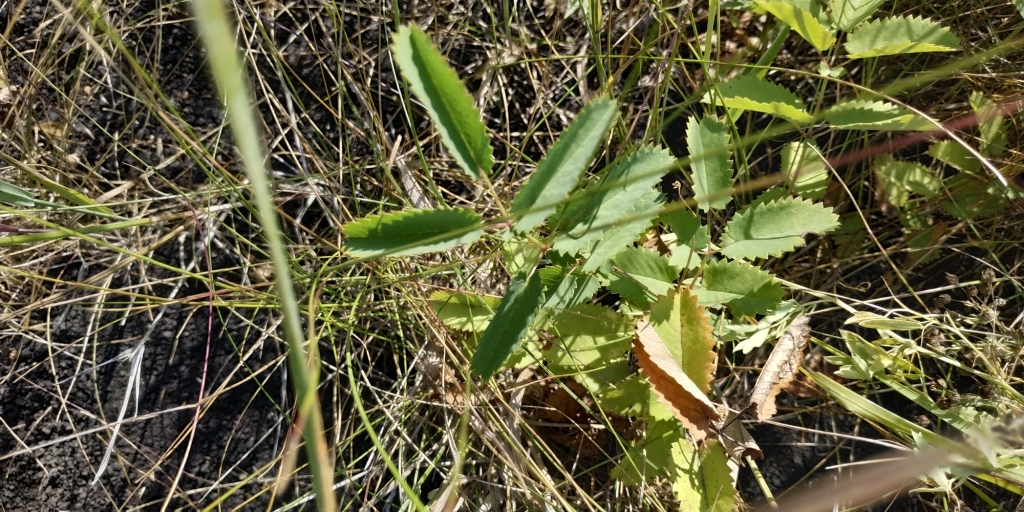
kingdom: Plantae
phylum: Tracheophyta
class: Magnoliopsida
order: Rosales
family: Rosaceae
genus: Sanguisorba
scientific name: Sanguisorba officinalis
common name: Great burnet
